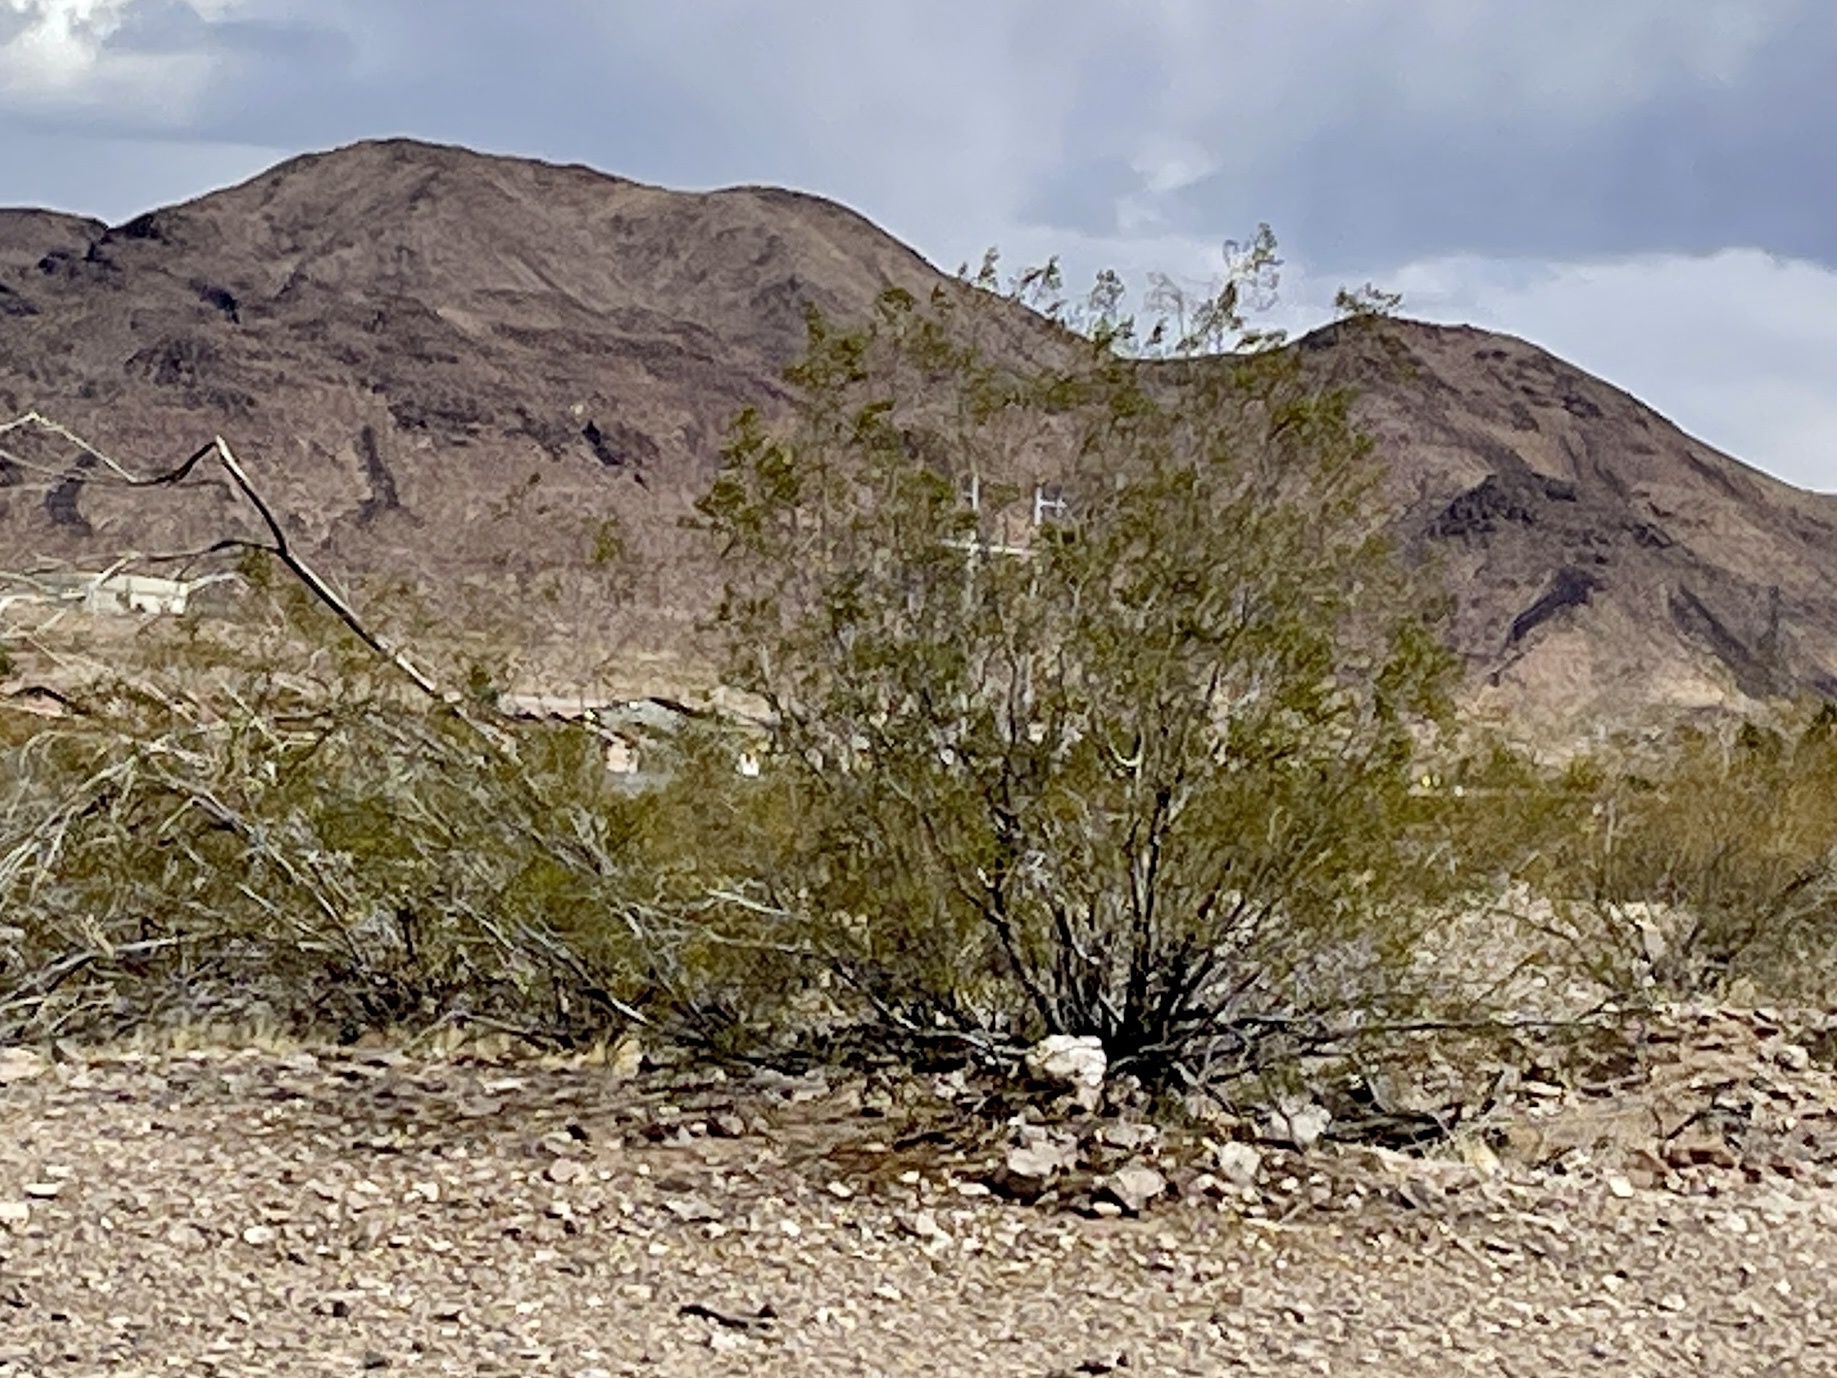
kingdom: Plantae
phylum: Tracheophyta
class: Magnoliopsida
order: Zygophyllales
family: Zygophyllaceae
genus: Larrea
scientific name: Larrea tridentata
